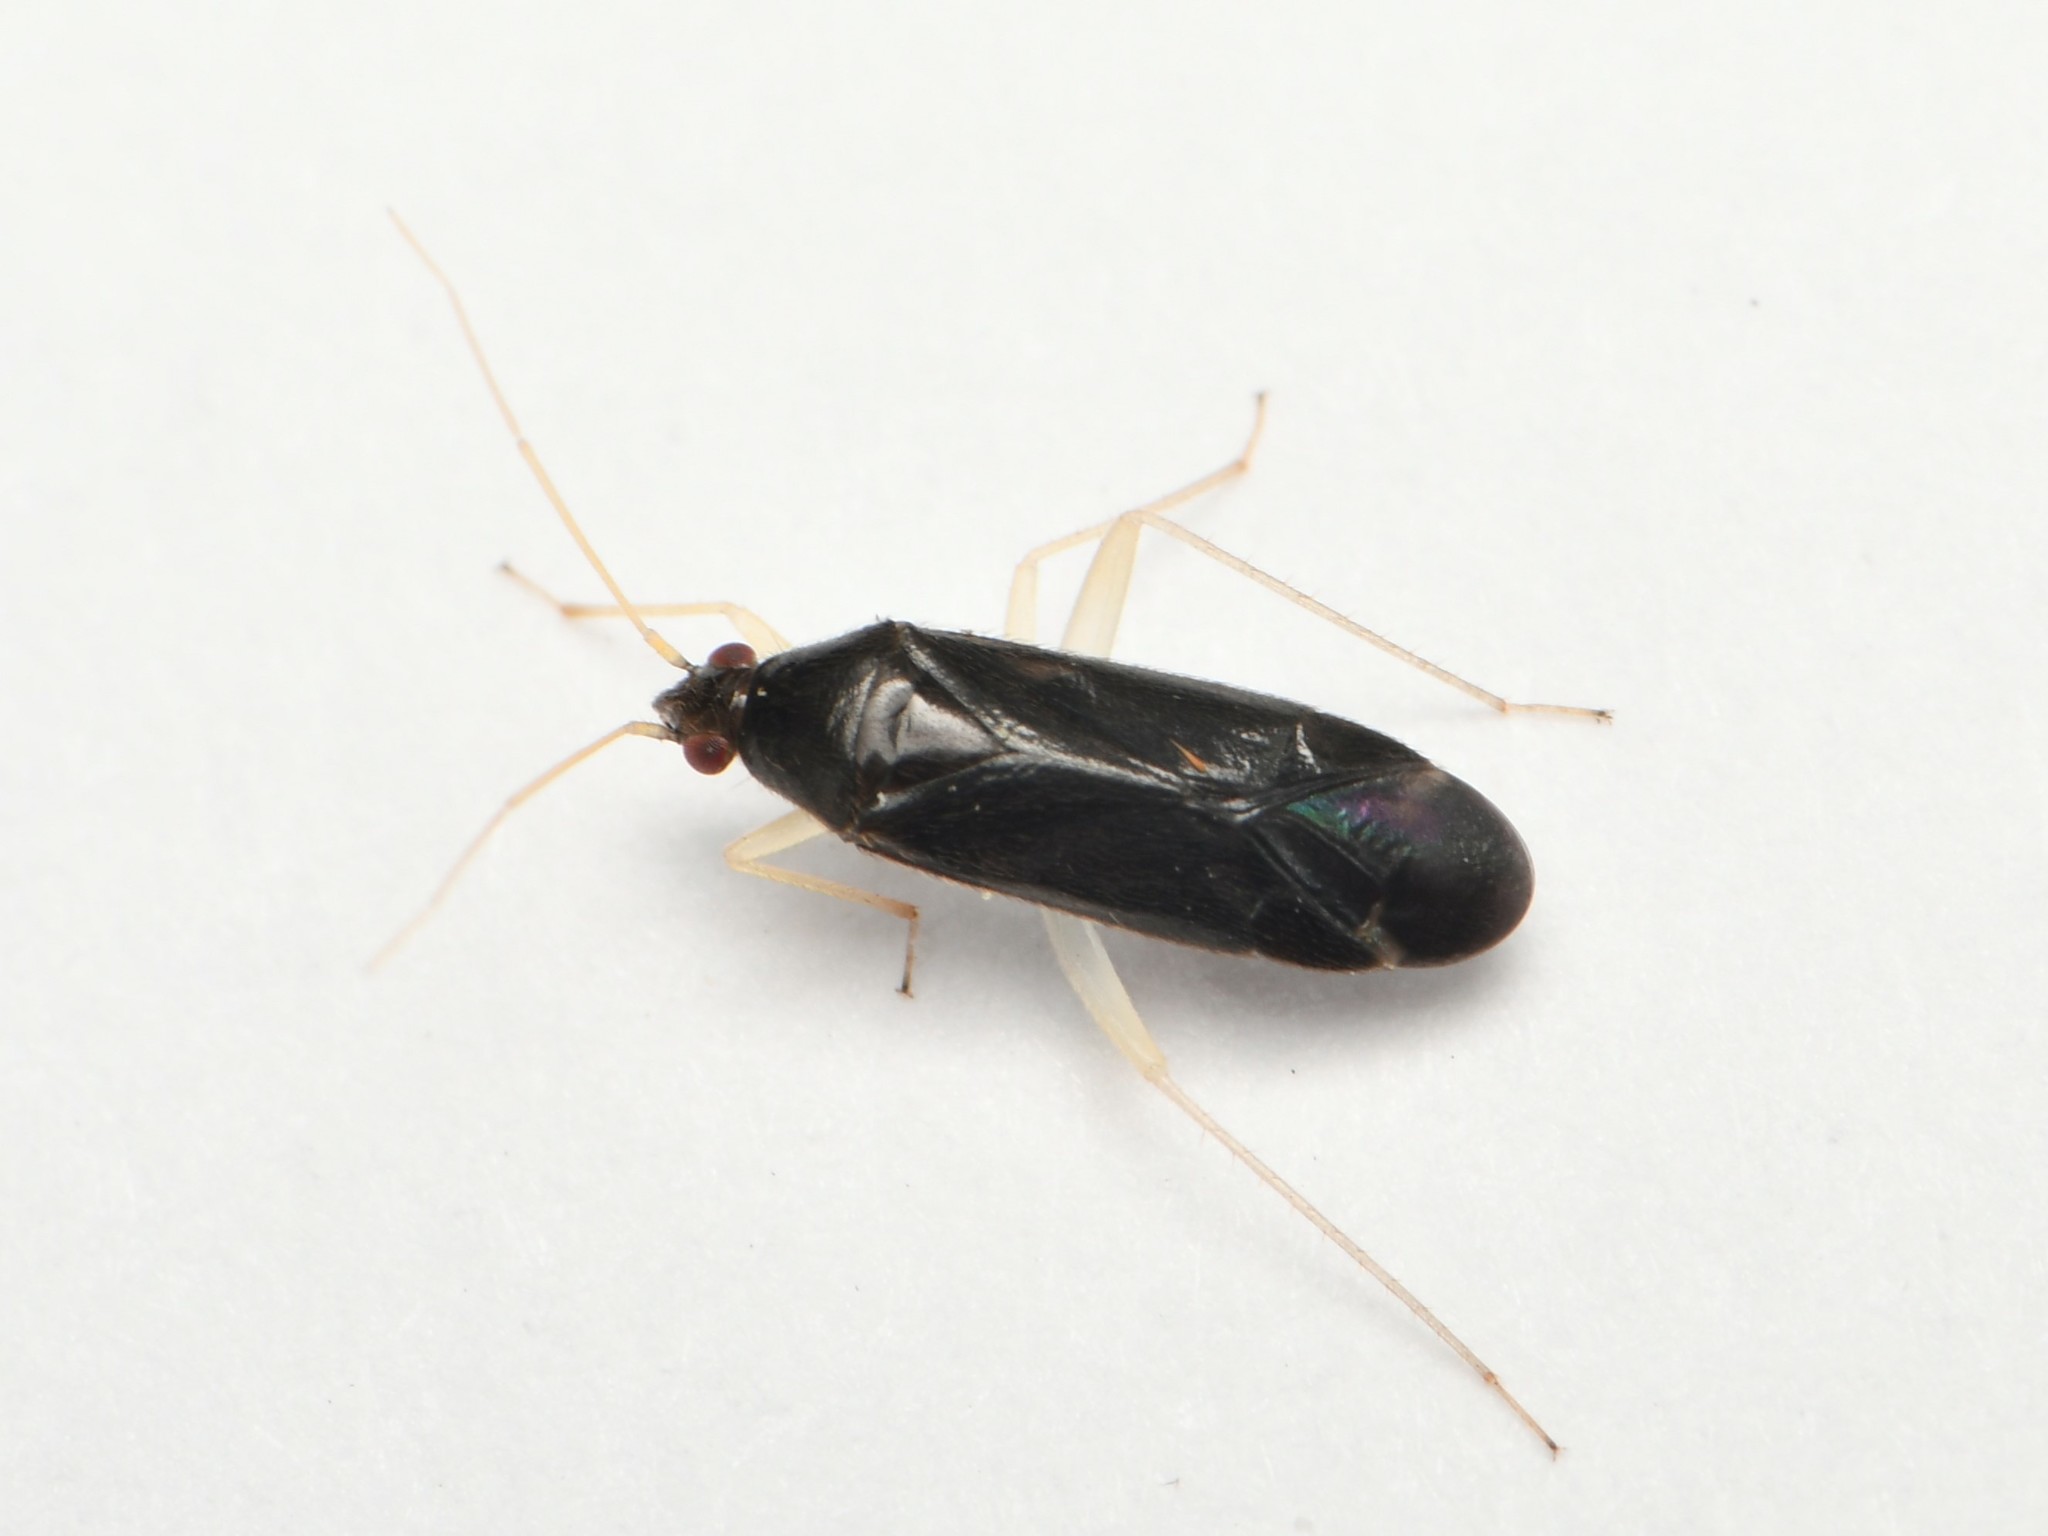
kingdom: Animalia
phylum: Arthropoda
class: Insecta
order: Hemiptera
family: Miridae
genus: Phylus
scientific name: Phylus coryli
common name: Plant bug
